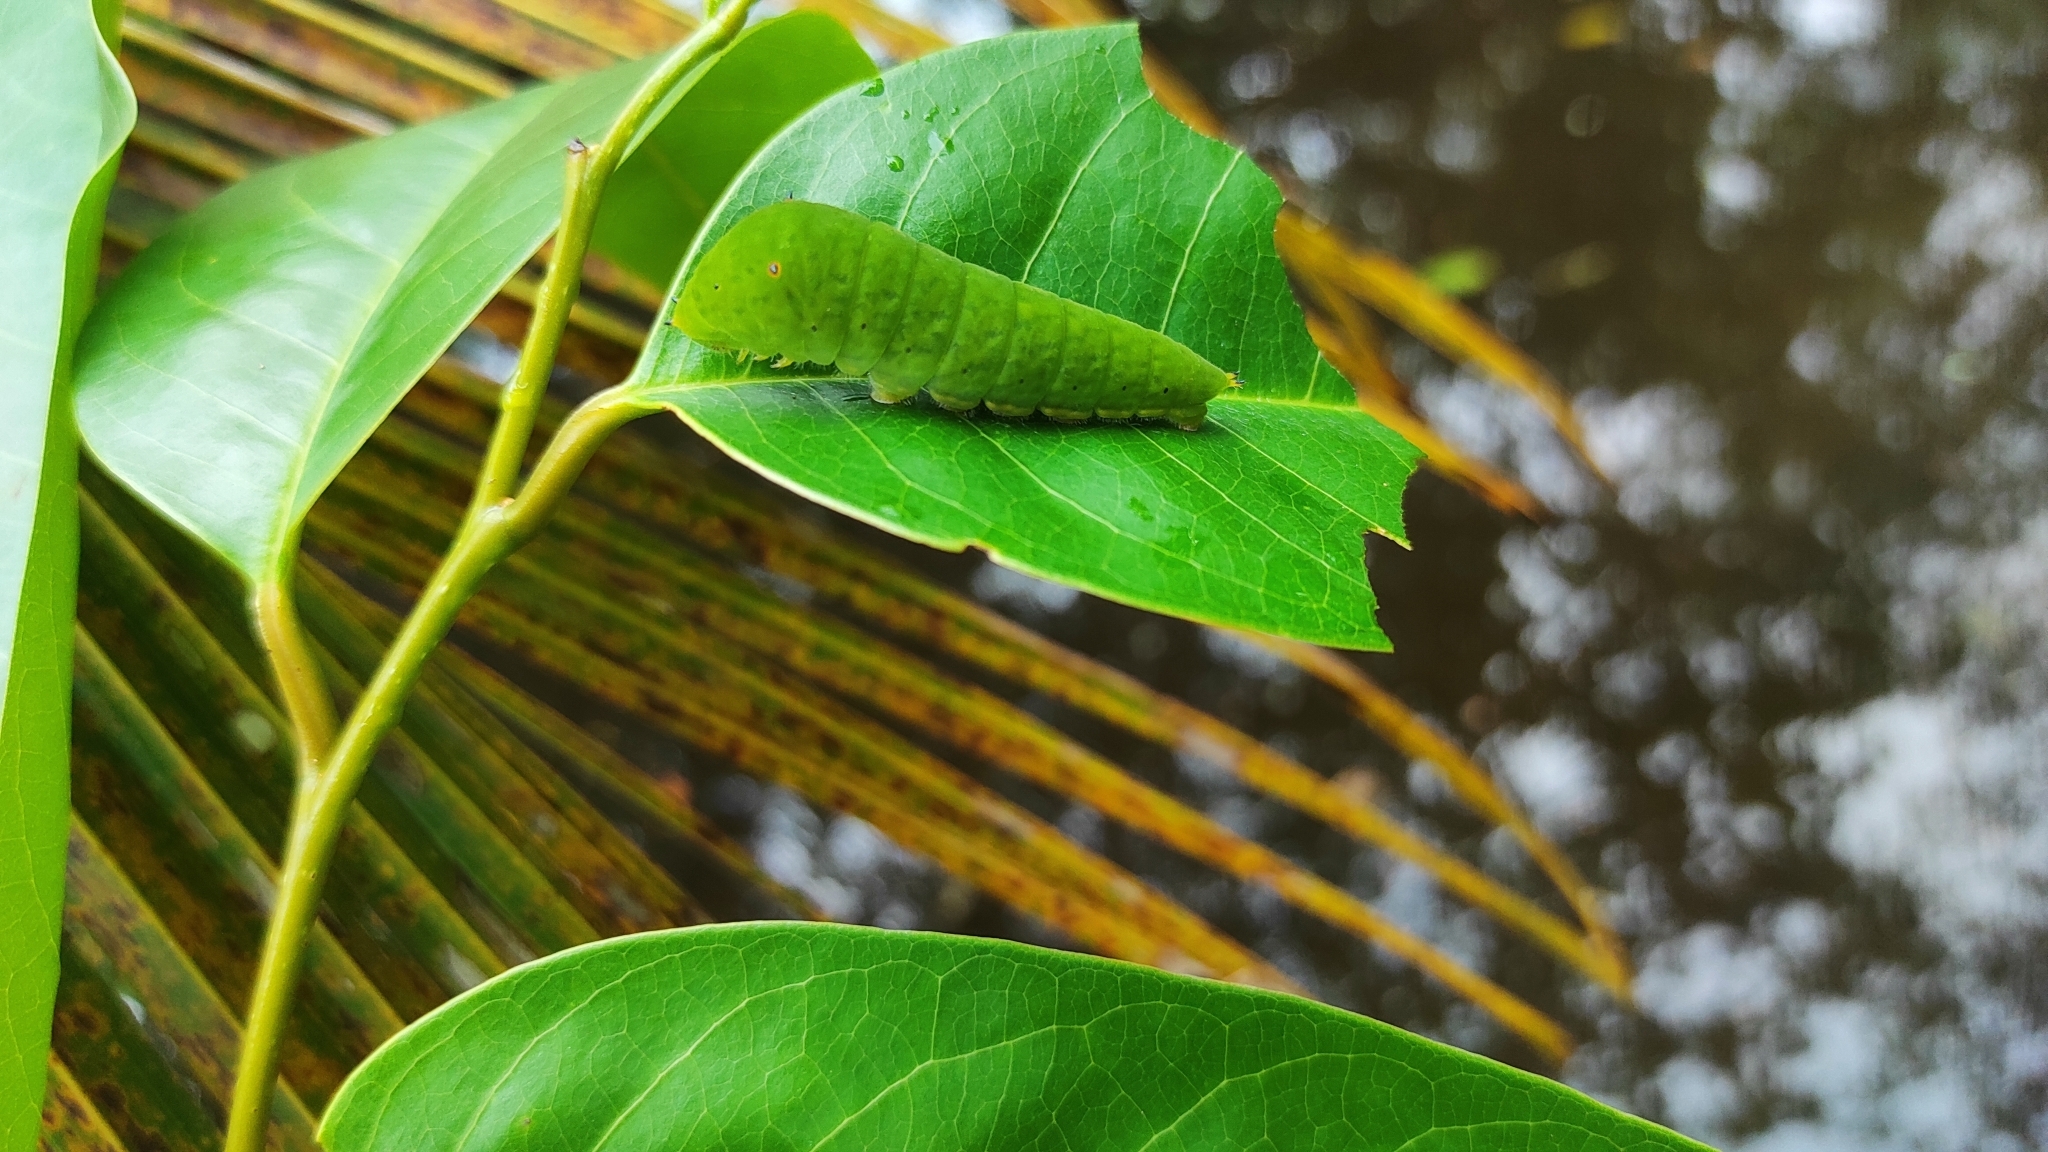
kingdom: Animalia
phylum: Arthropoda
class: Insecta
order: Lepidoptera
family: Papilionidae
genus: Graphium
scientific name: Graphium agamemnon
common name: Tailed jay
